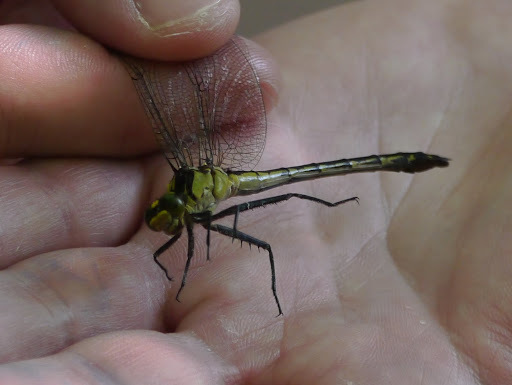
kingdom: Animalia
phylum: Arthropoda
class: Insecta
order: Odonata
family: Gomphidae
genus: Dromogomphus
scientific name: Dromogomphus spinosus
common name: Black-shouldered spinyleg
